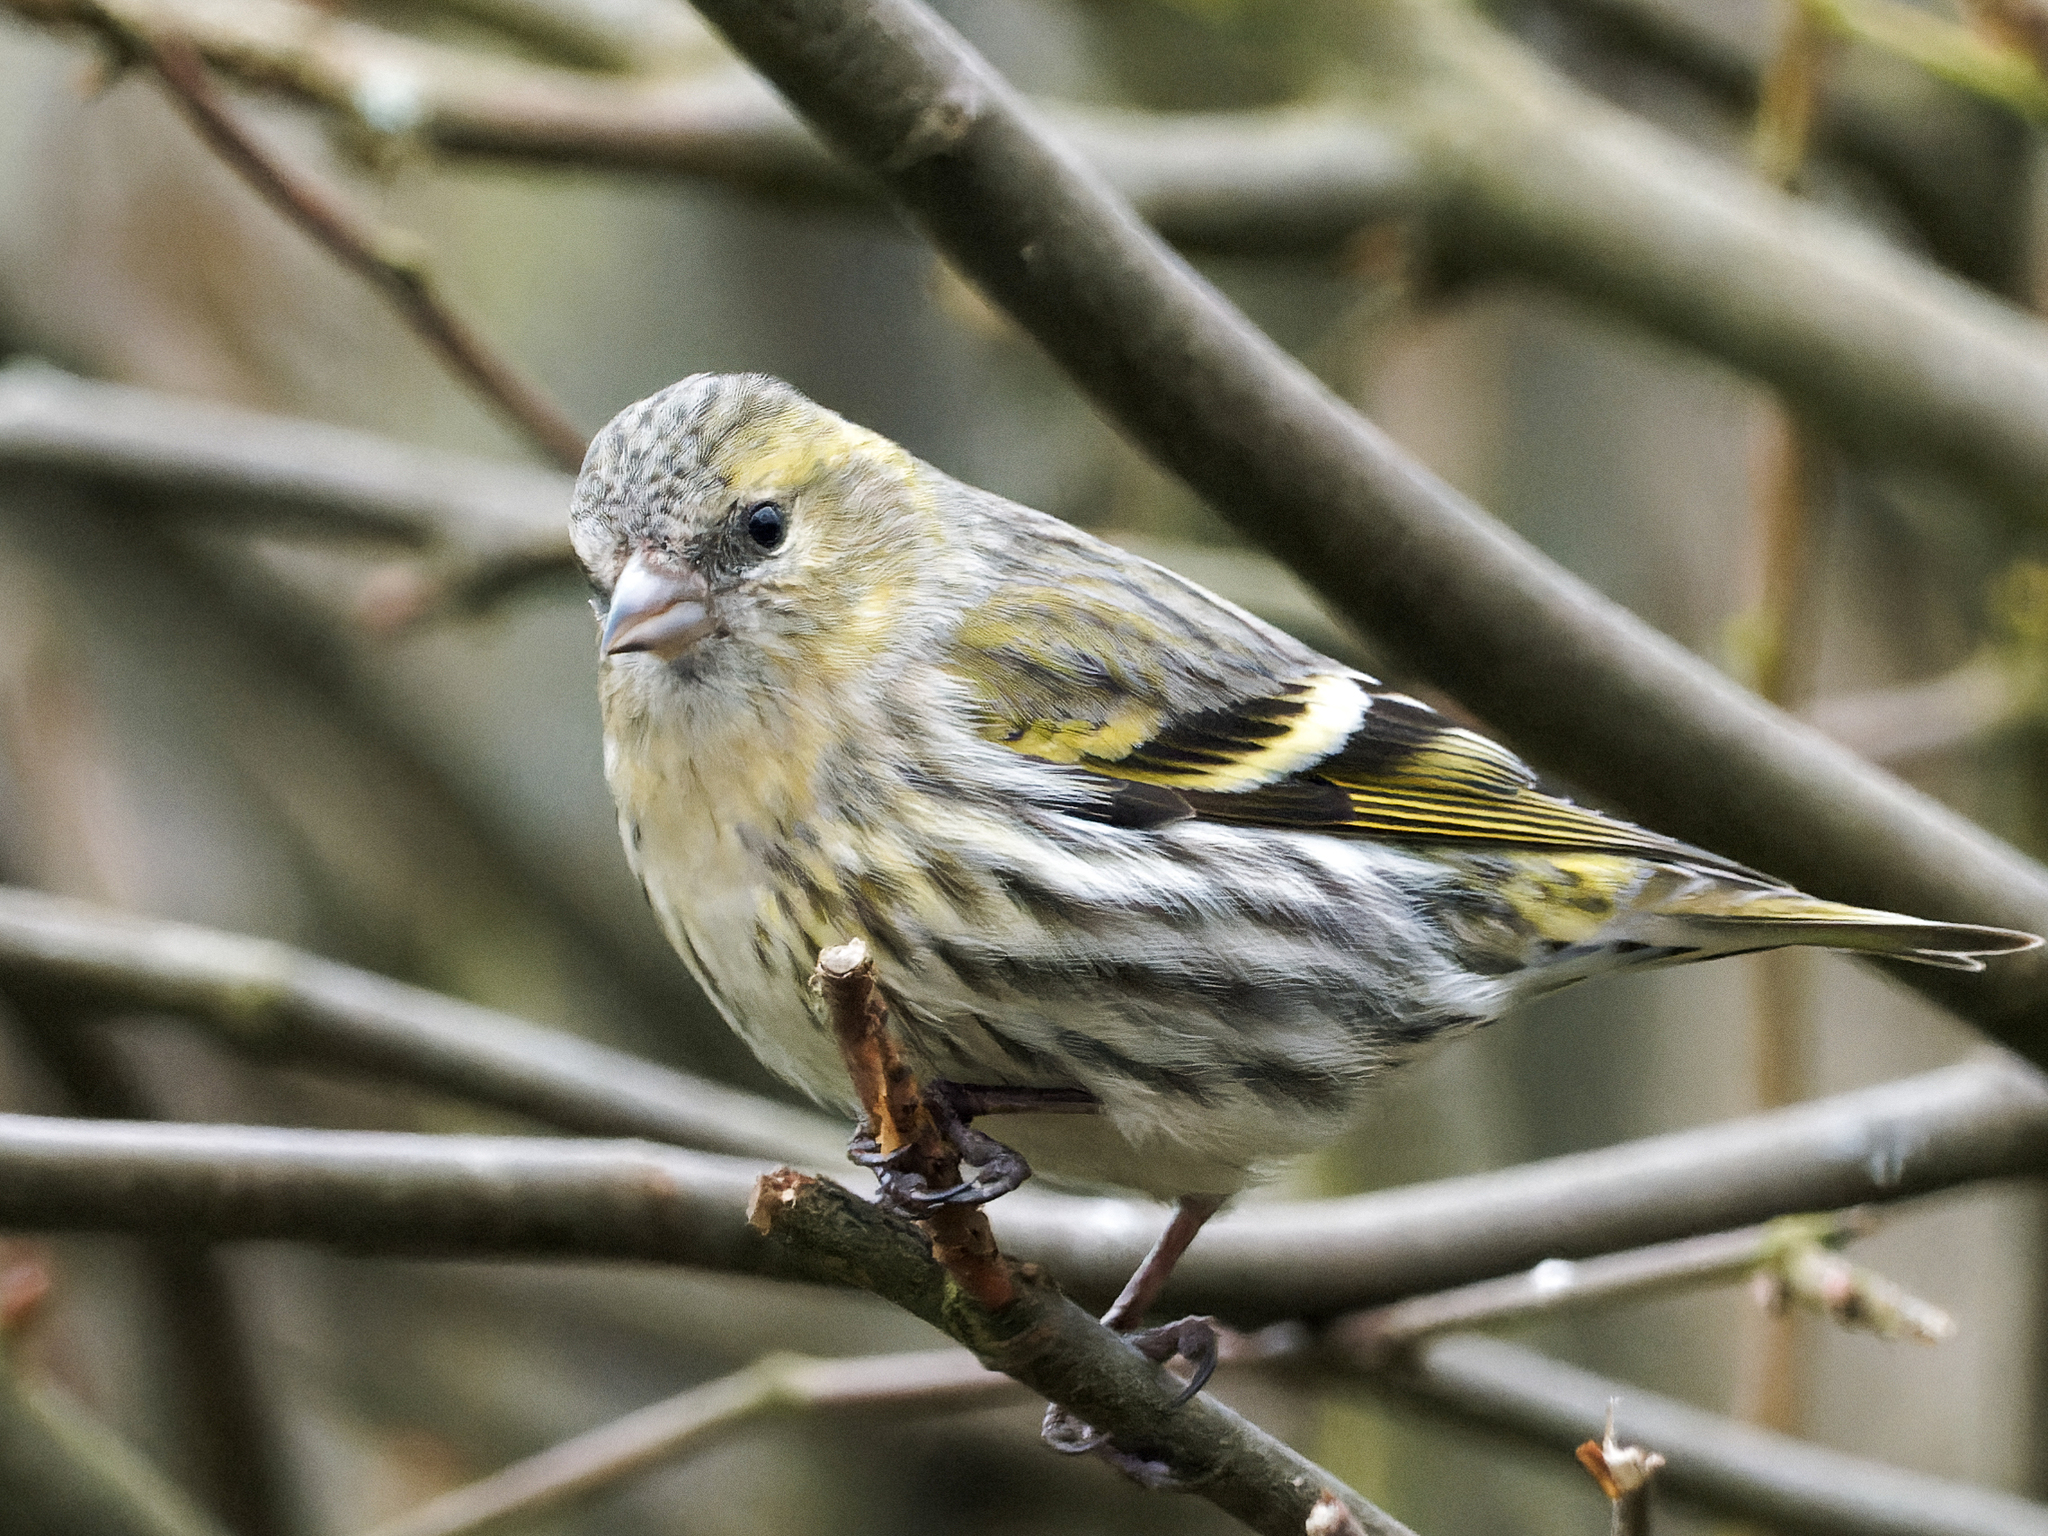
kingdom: Animalia
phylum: Chordata
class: Aves
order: Passeriformes
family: Fringillidae
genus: Spinus
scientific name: Spinus spinus
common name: Eurasian siskin
